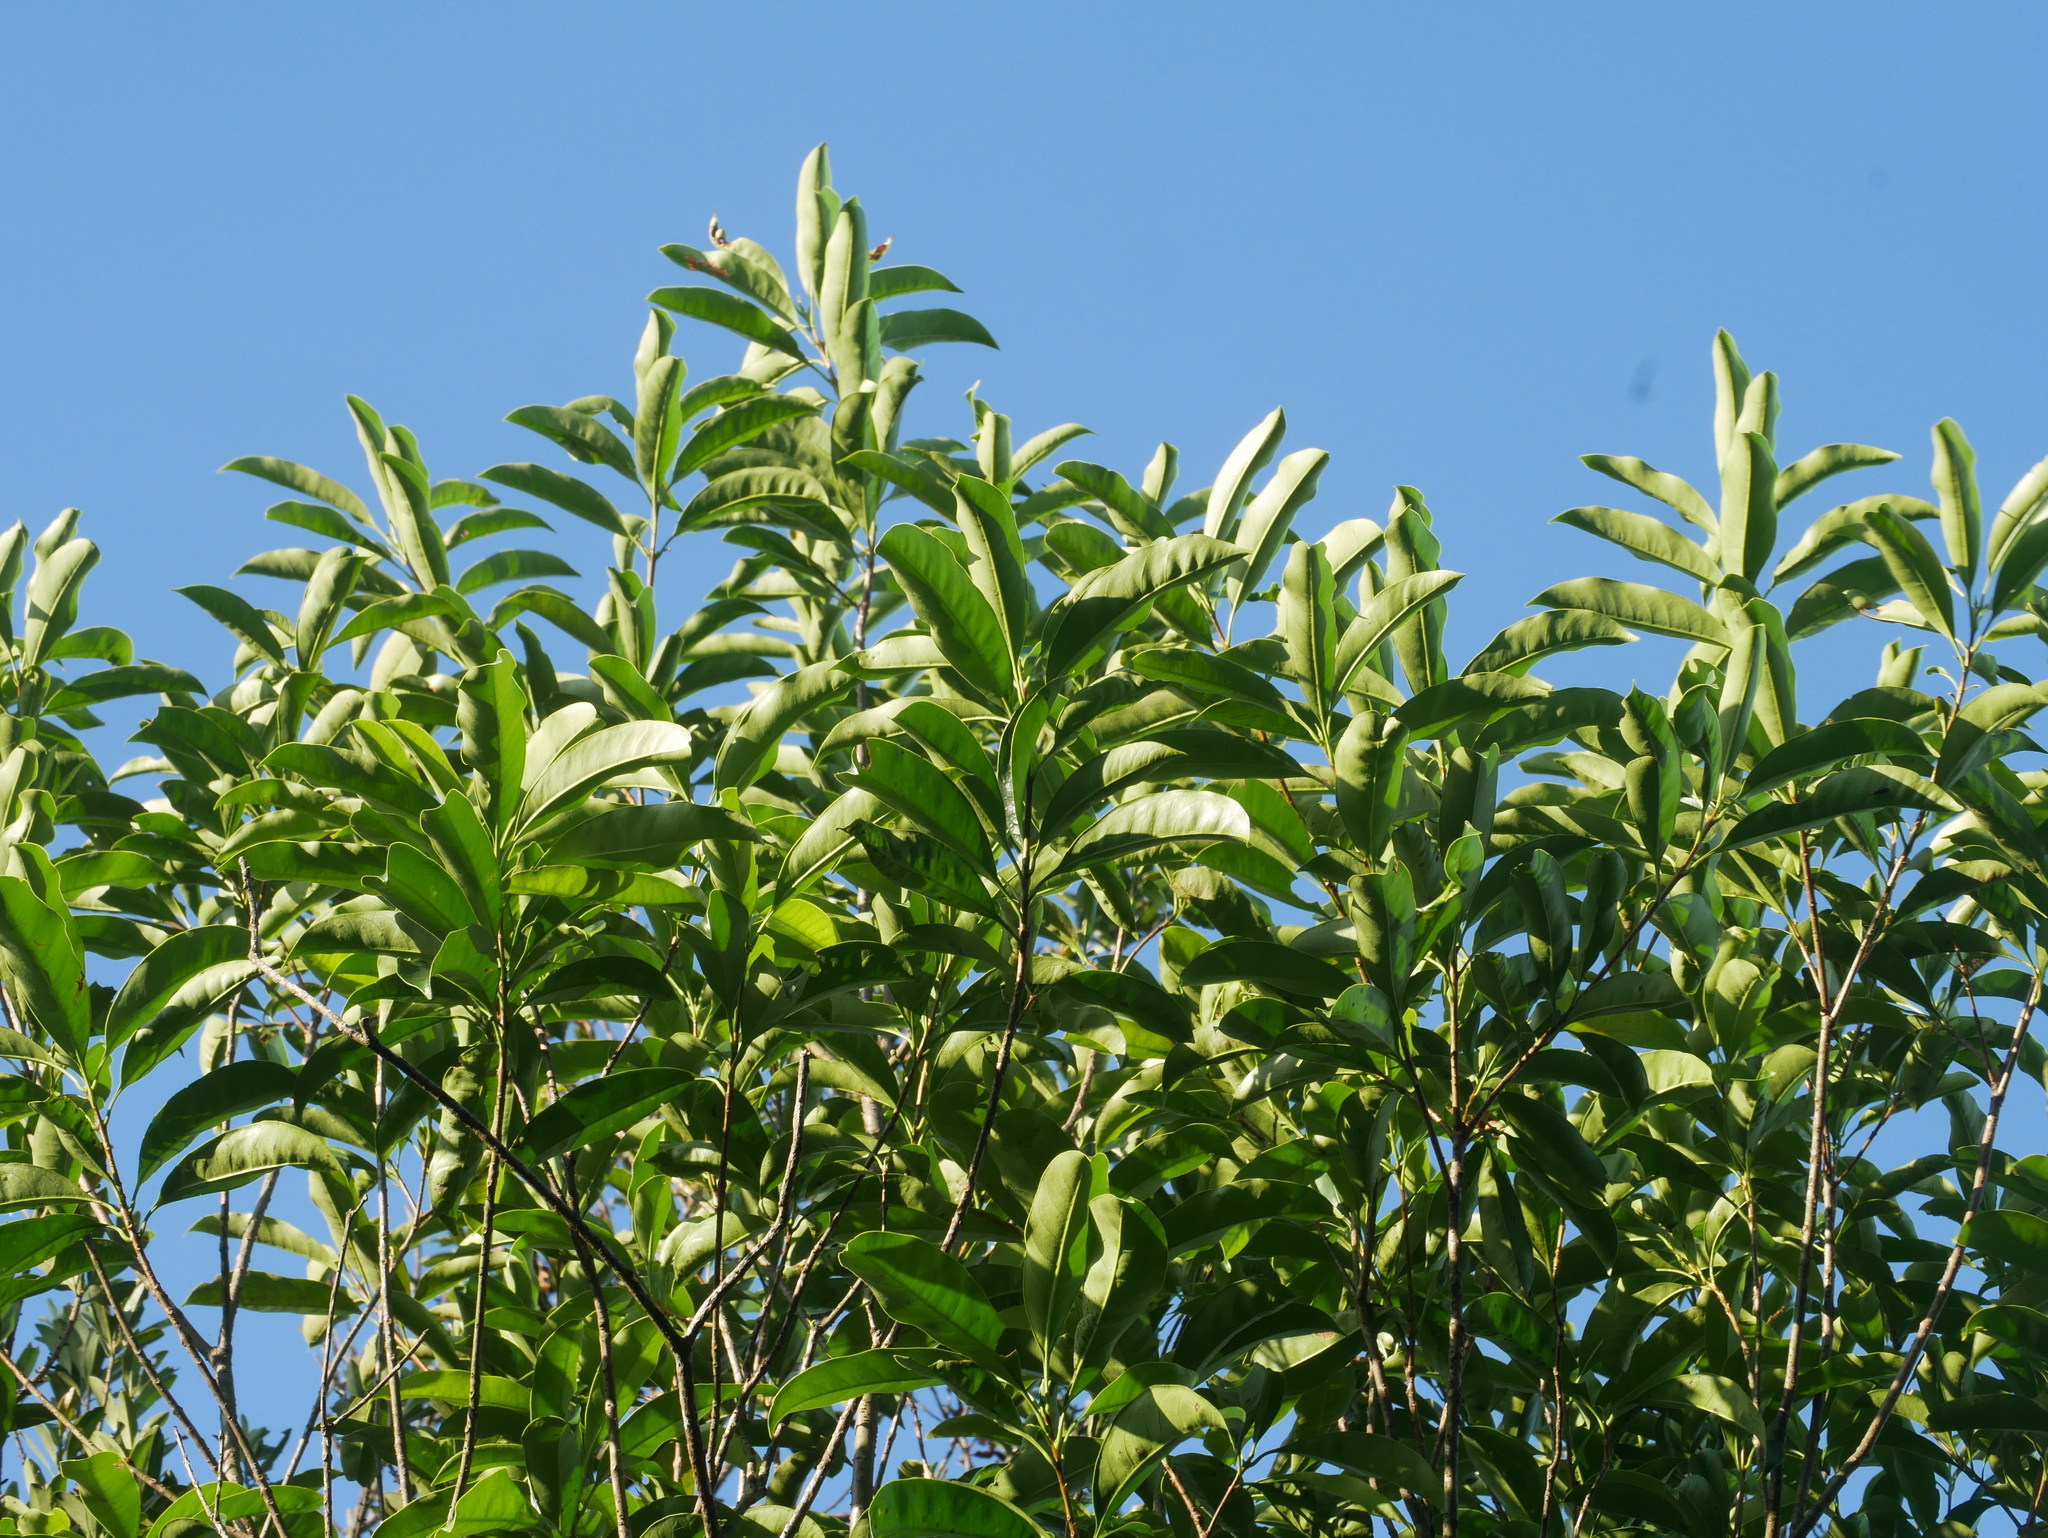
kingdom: Plantae
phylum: Tracheophyta
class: Magnoliopsida
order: Lamiales
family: Oleaceae
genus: Chengiodendron
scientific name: Chengiodendron matsumuranum
